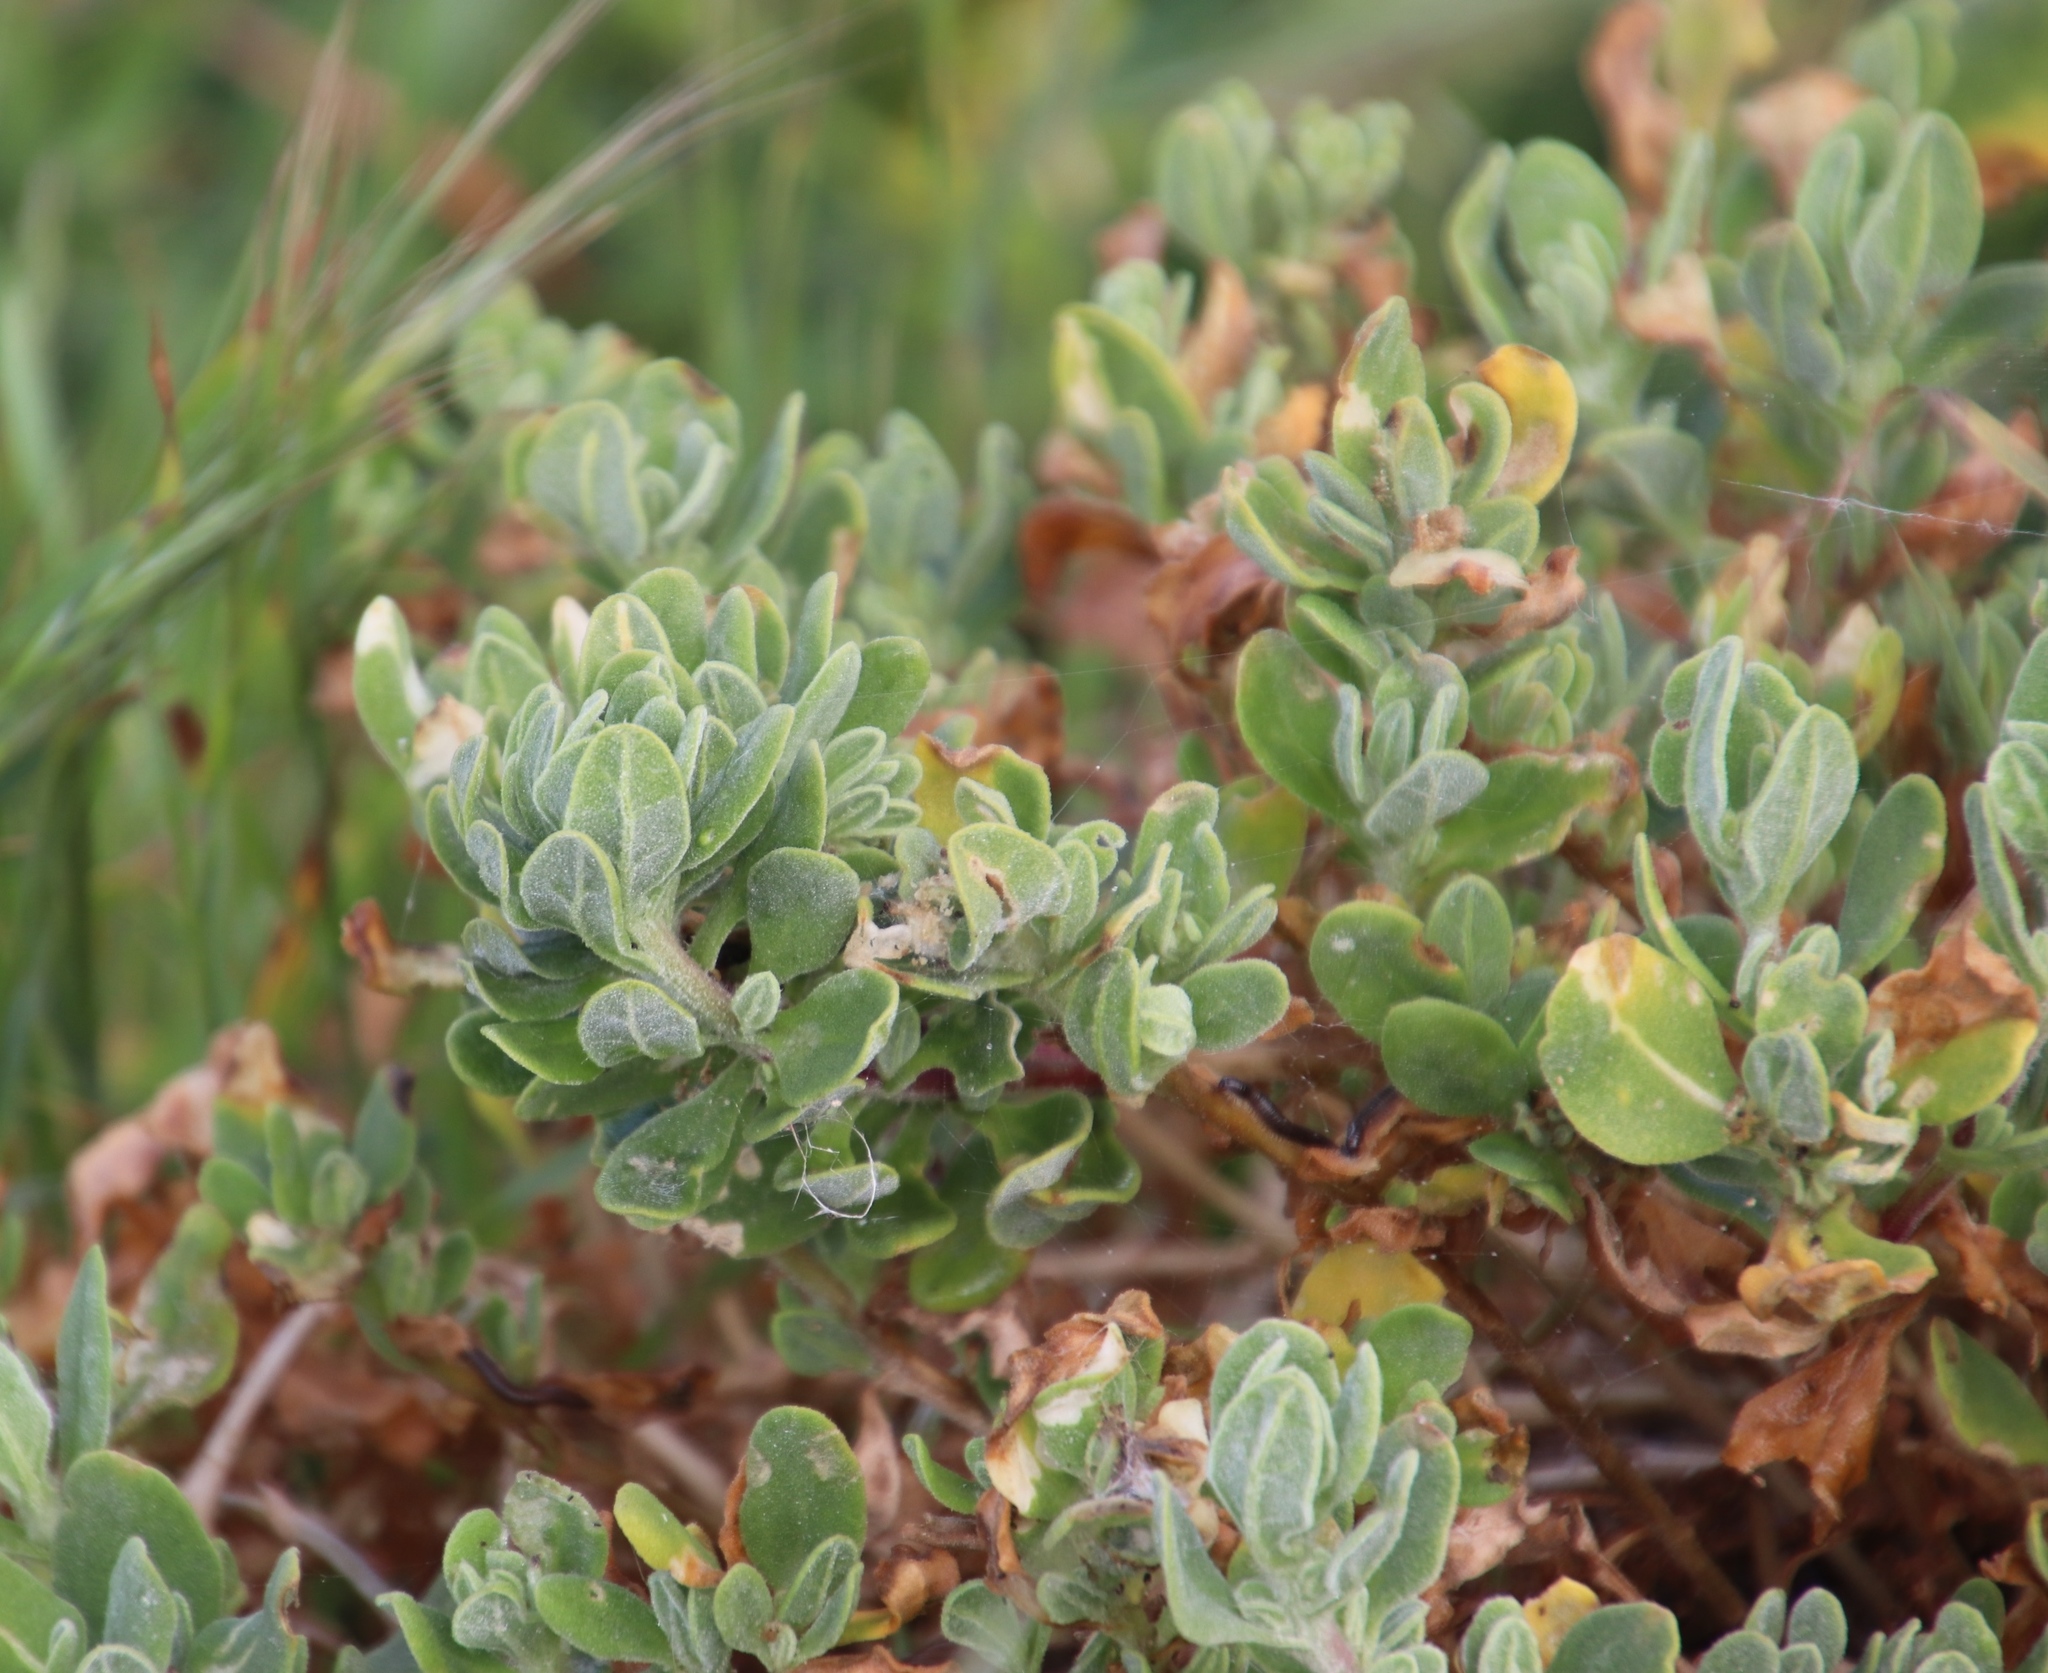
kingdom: Plantae
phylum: Tracheophyta
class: Magnoliopsida
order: Caryophyllales
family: Aizoaceae
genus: Tetragonia
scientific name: Tetragonia decumbens
